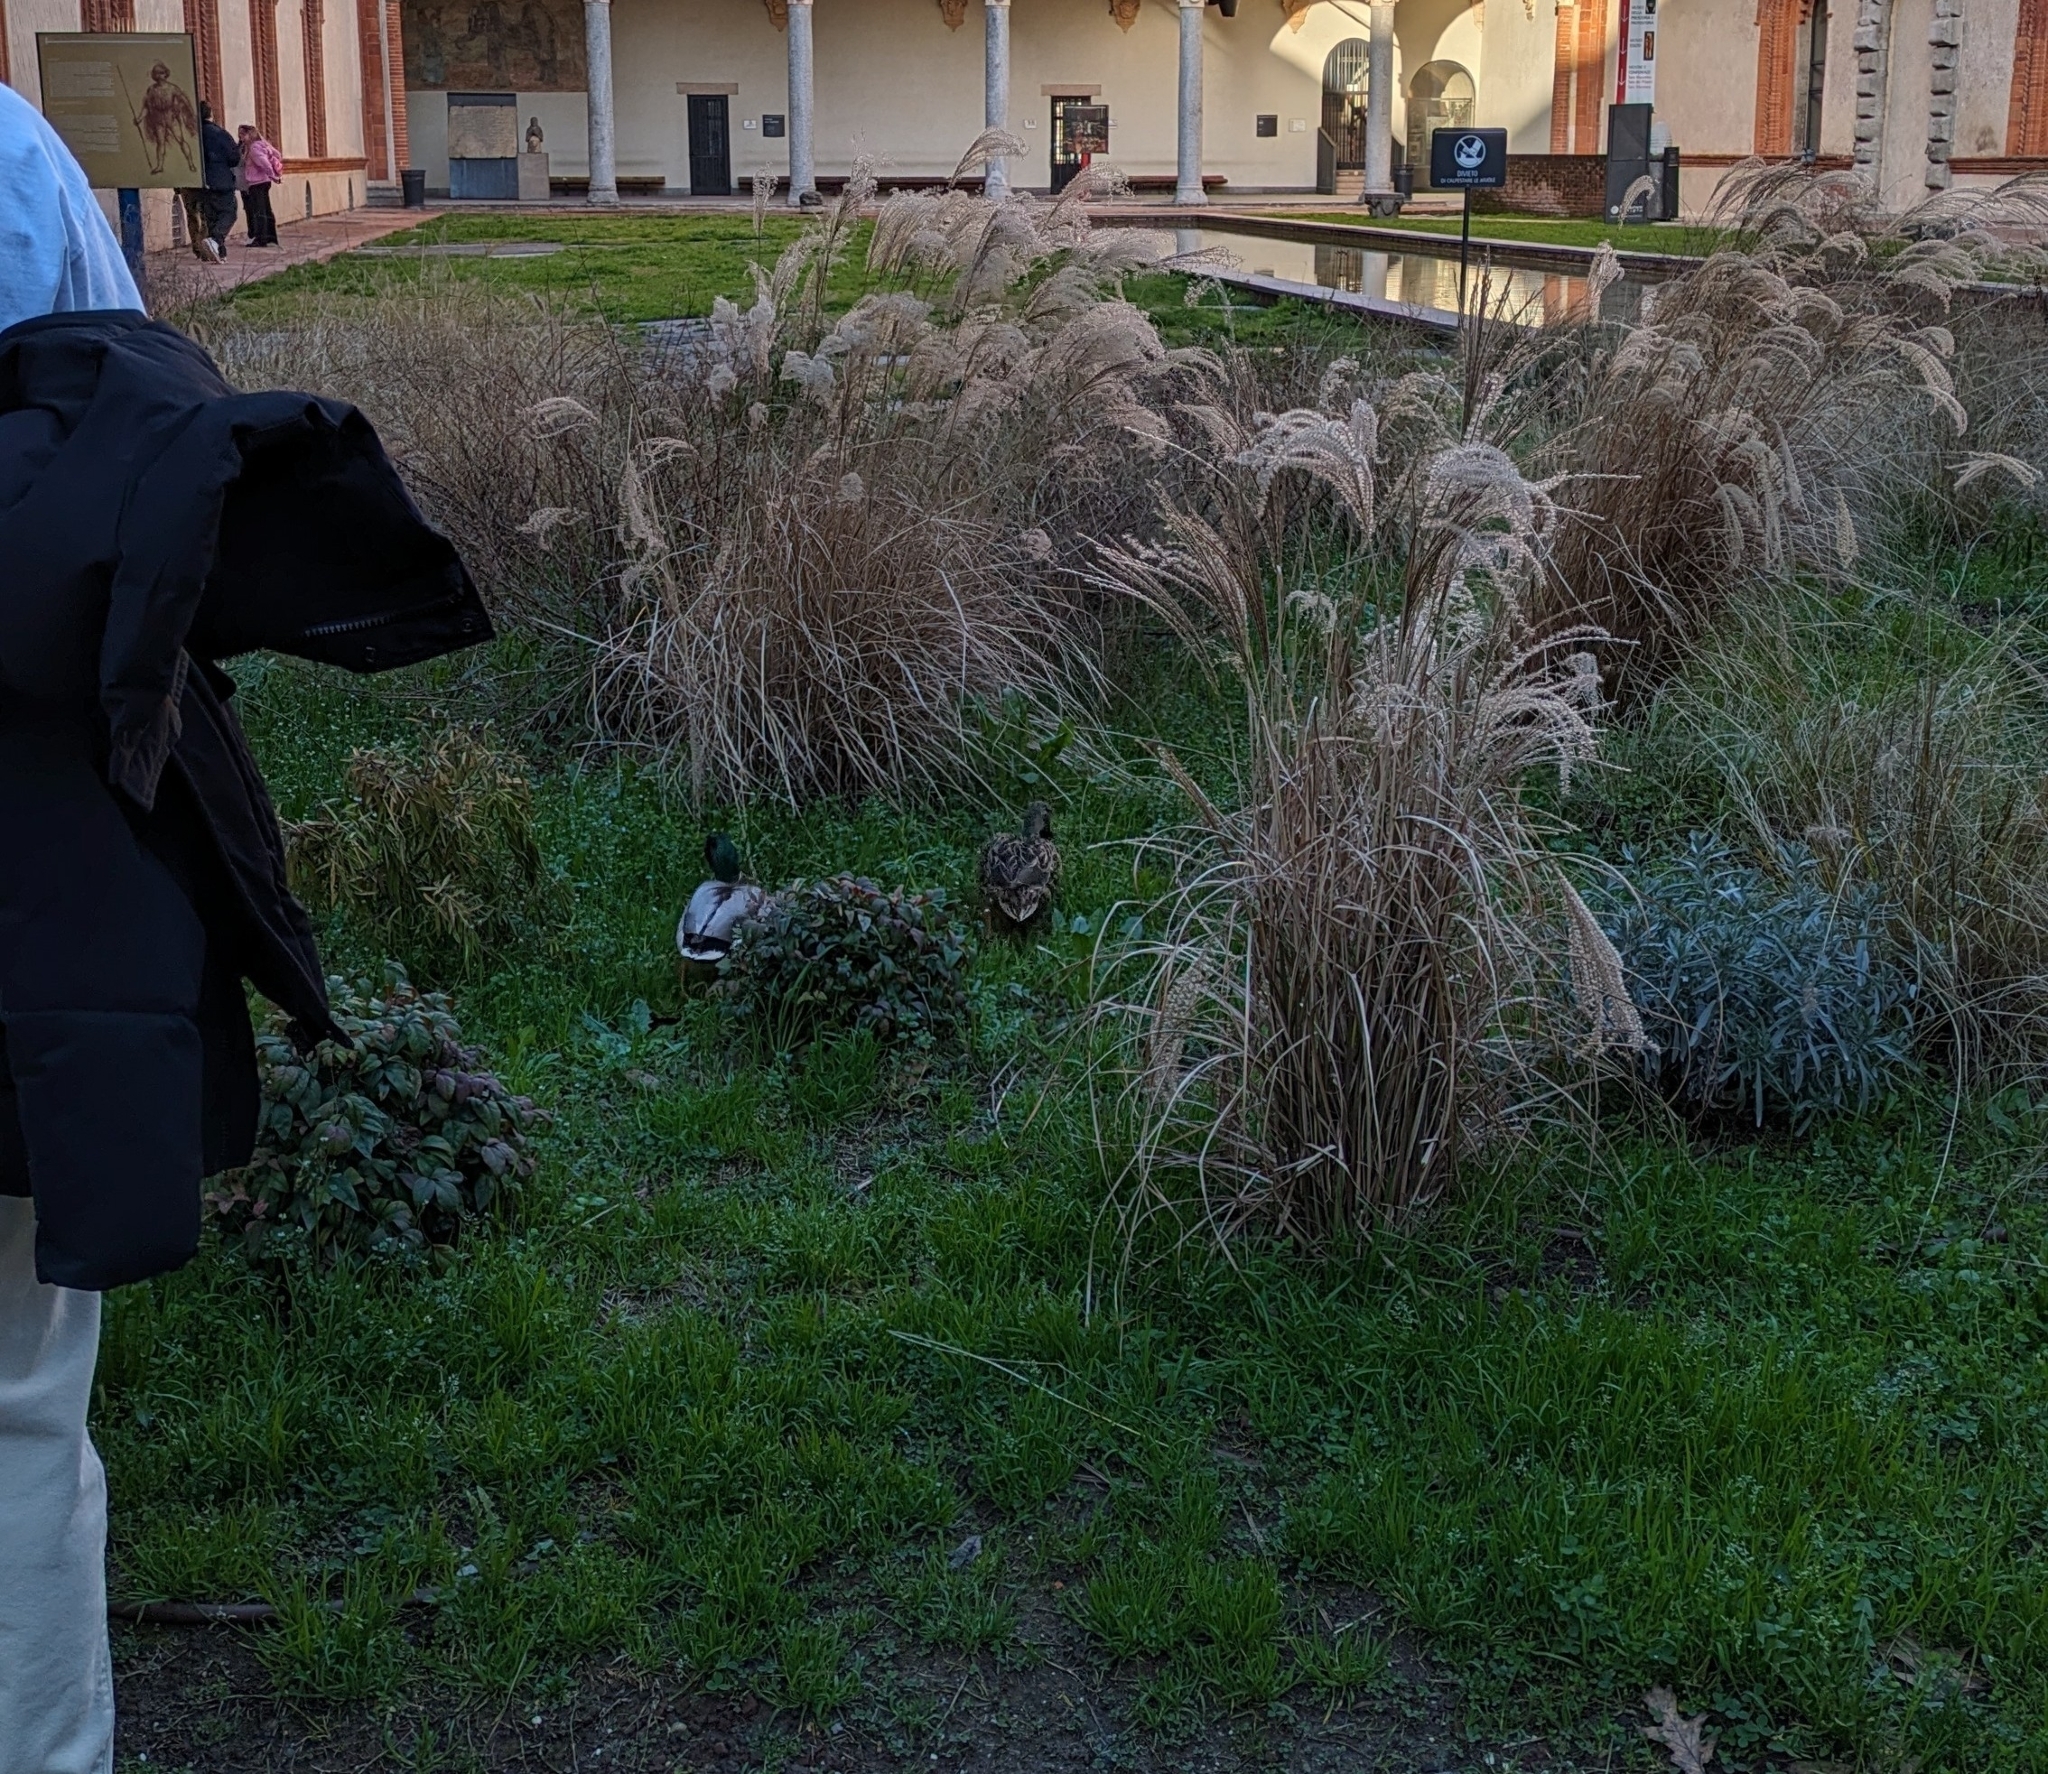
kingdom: Animalia
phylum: Chordata
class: Aves
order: Anseriformes
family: Anatidae
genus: Anas
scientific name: Anas platyrhynchos
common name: Mallard
